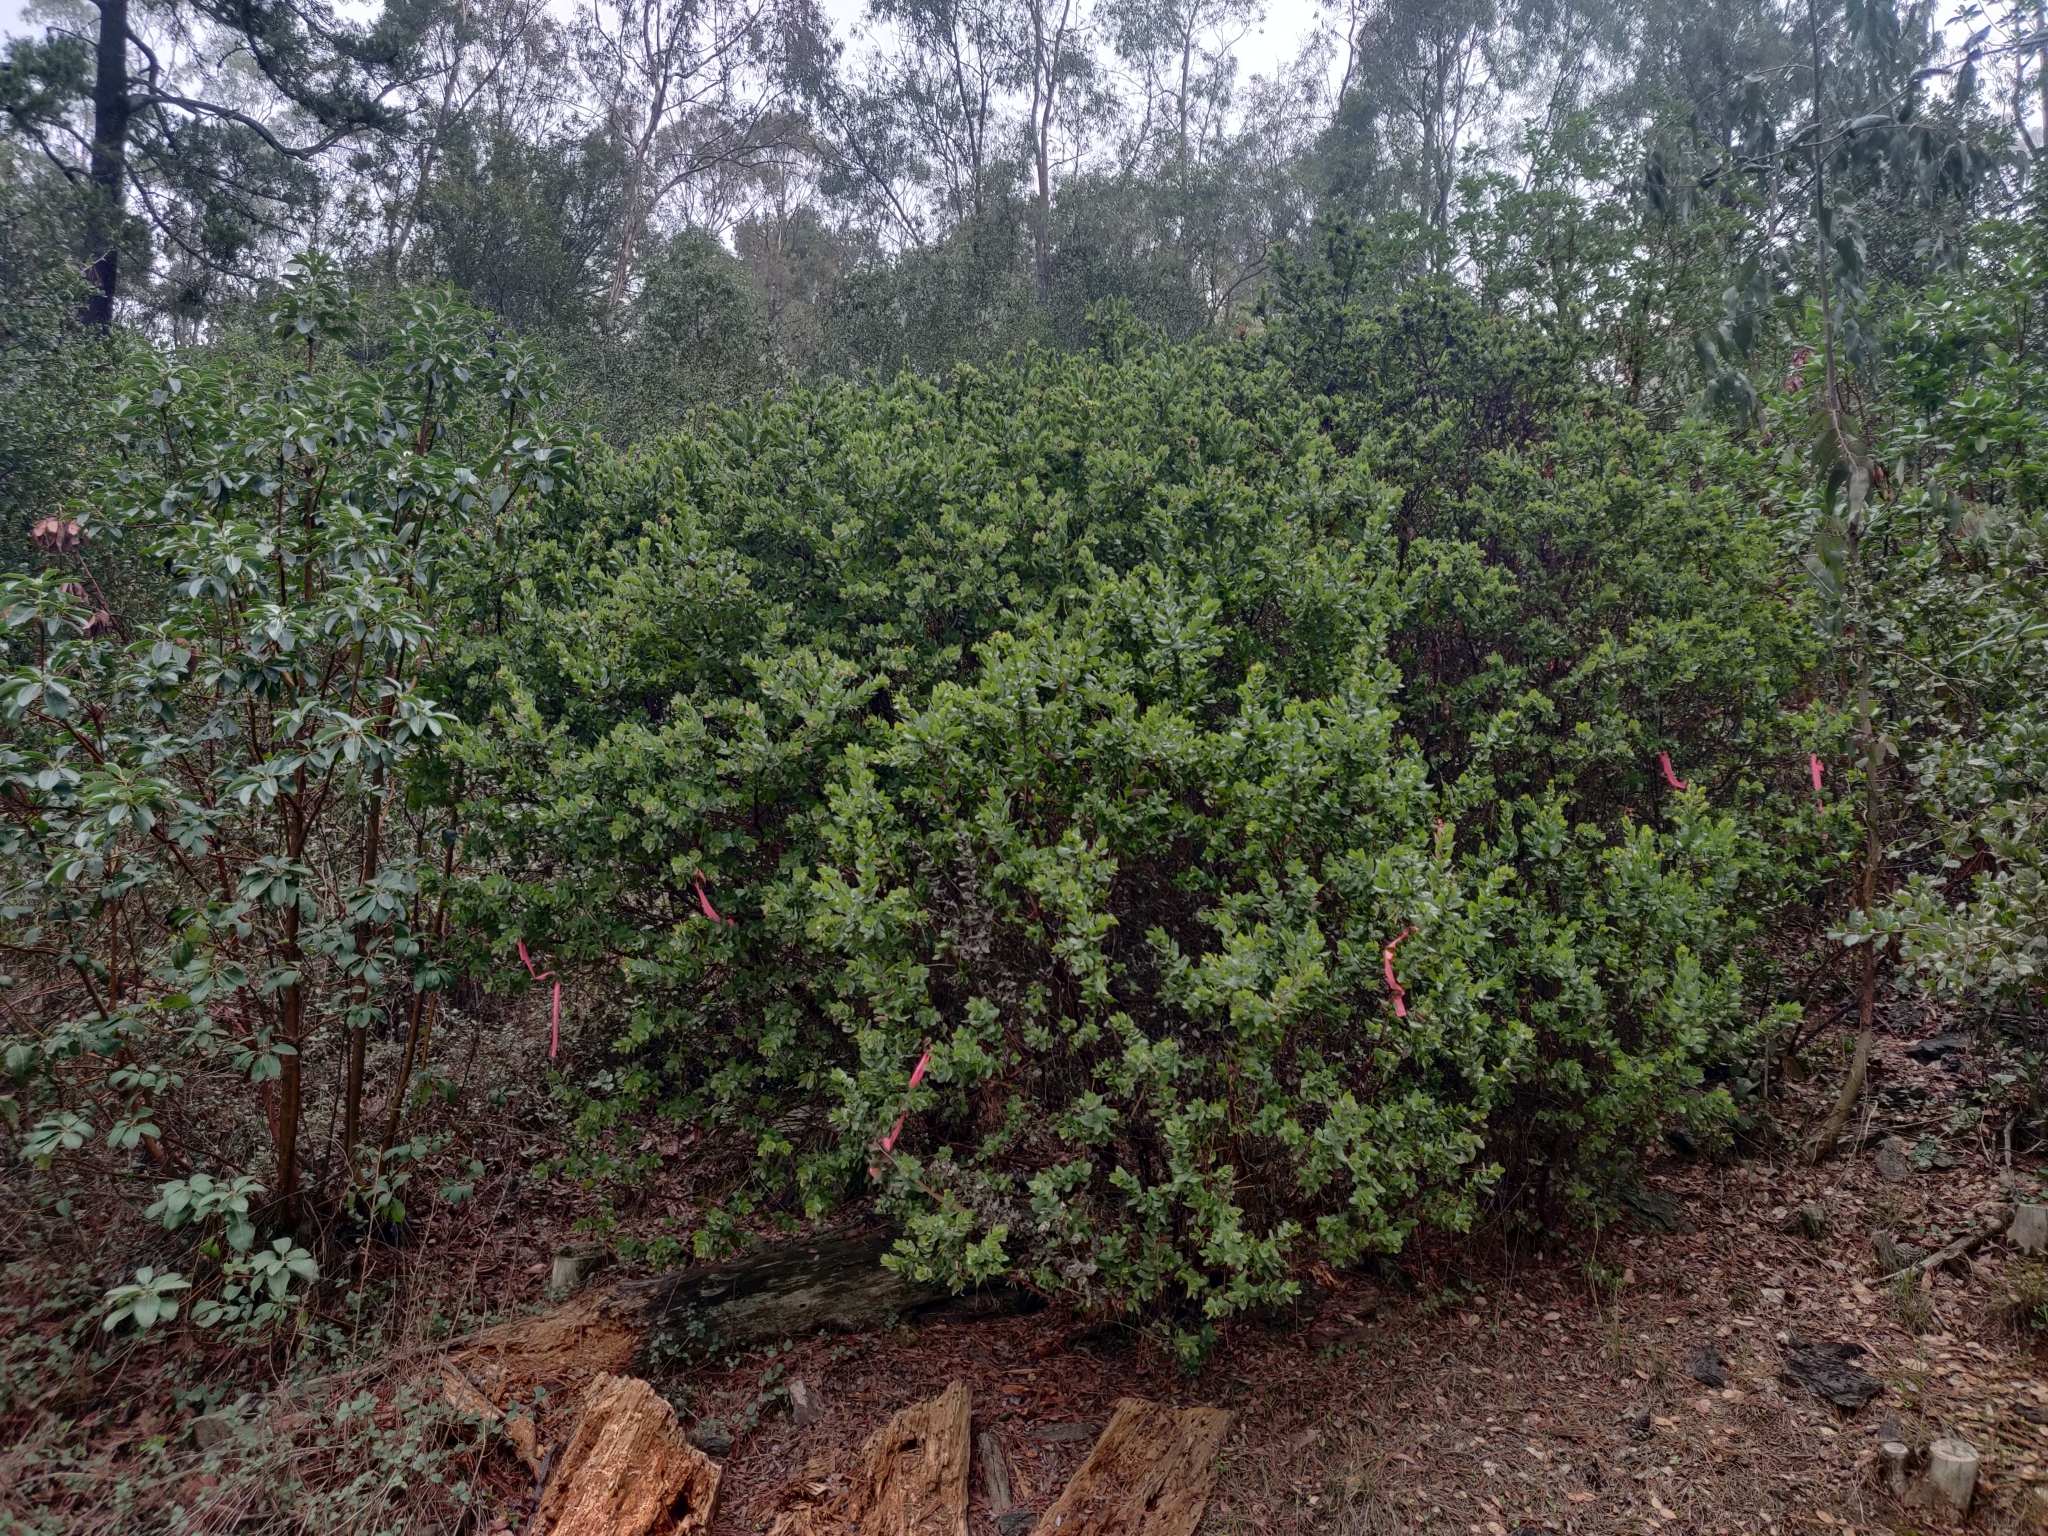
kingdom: Plantae
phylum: Tracheophyta
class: Magnoliopsida
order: Ericales
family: Ericaceae
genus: Arctostaphylos
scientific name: Arctostaphylos pallida
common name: Pallid manzanita
